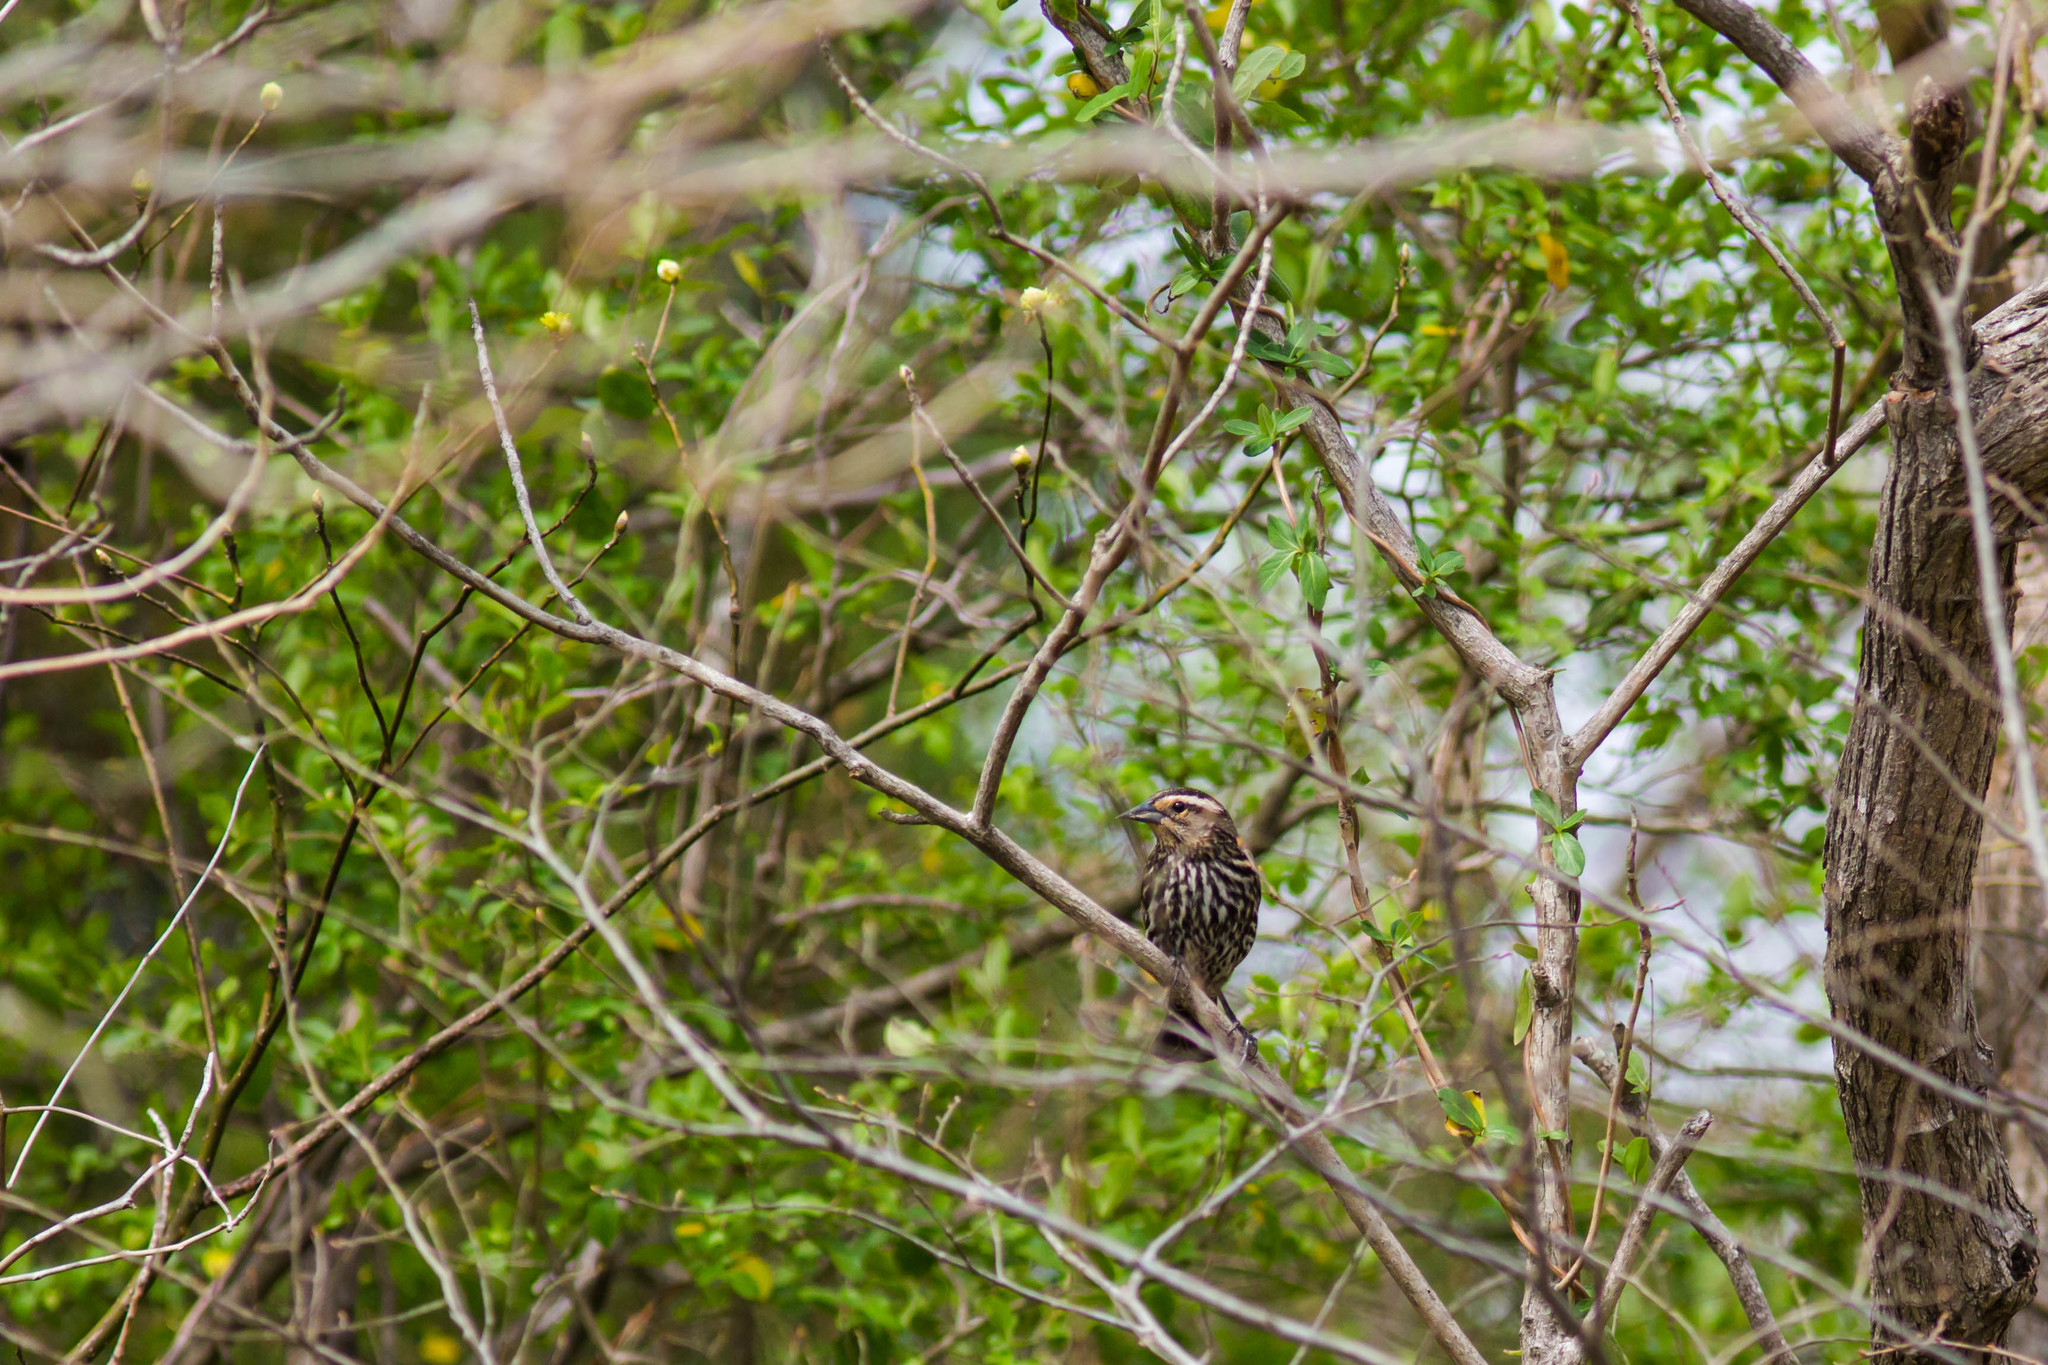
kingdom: Animalia
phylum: Chordata
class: Aves
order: Passeriformes
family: Icteridae
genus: Agelaius
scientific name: Agelaius phoeniceus
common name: Red-winged blackbird
